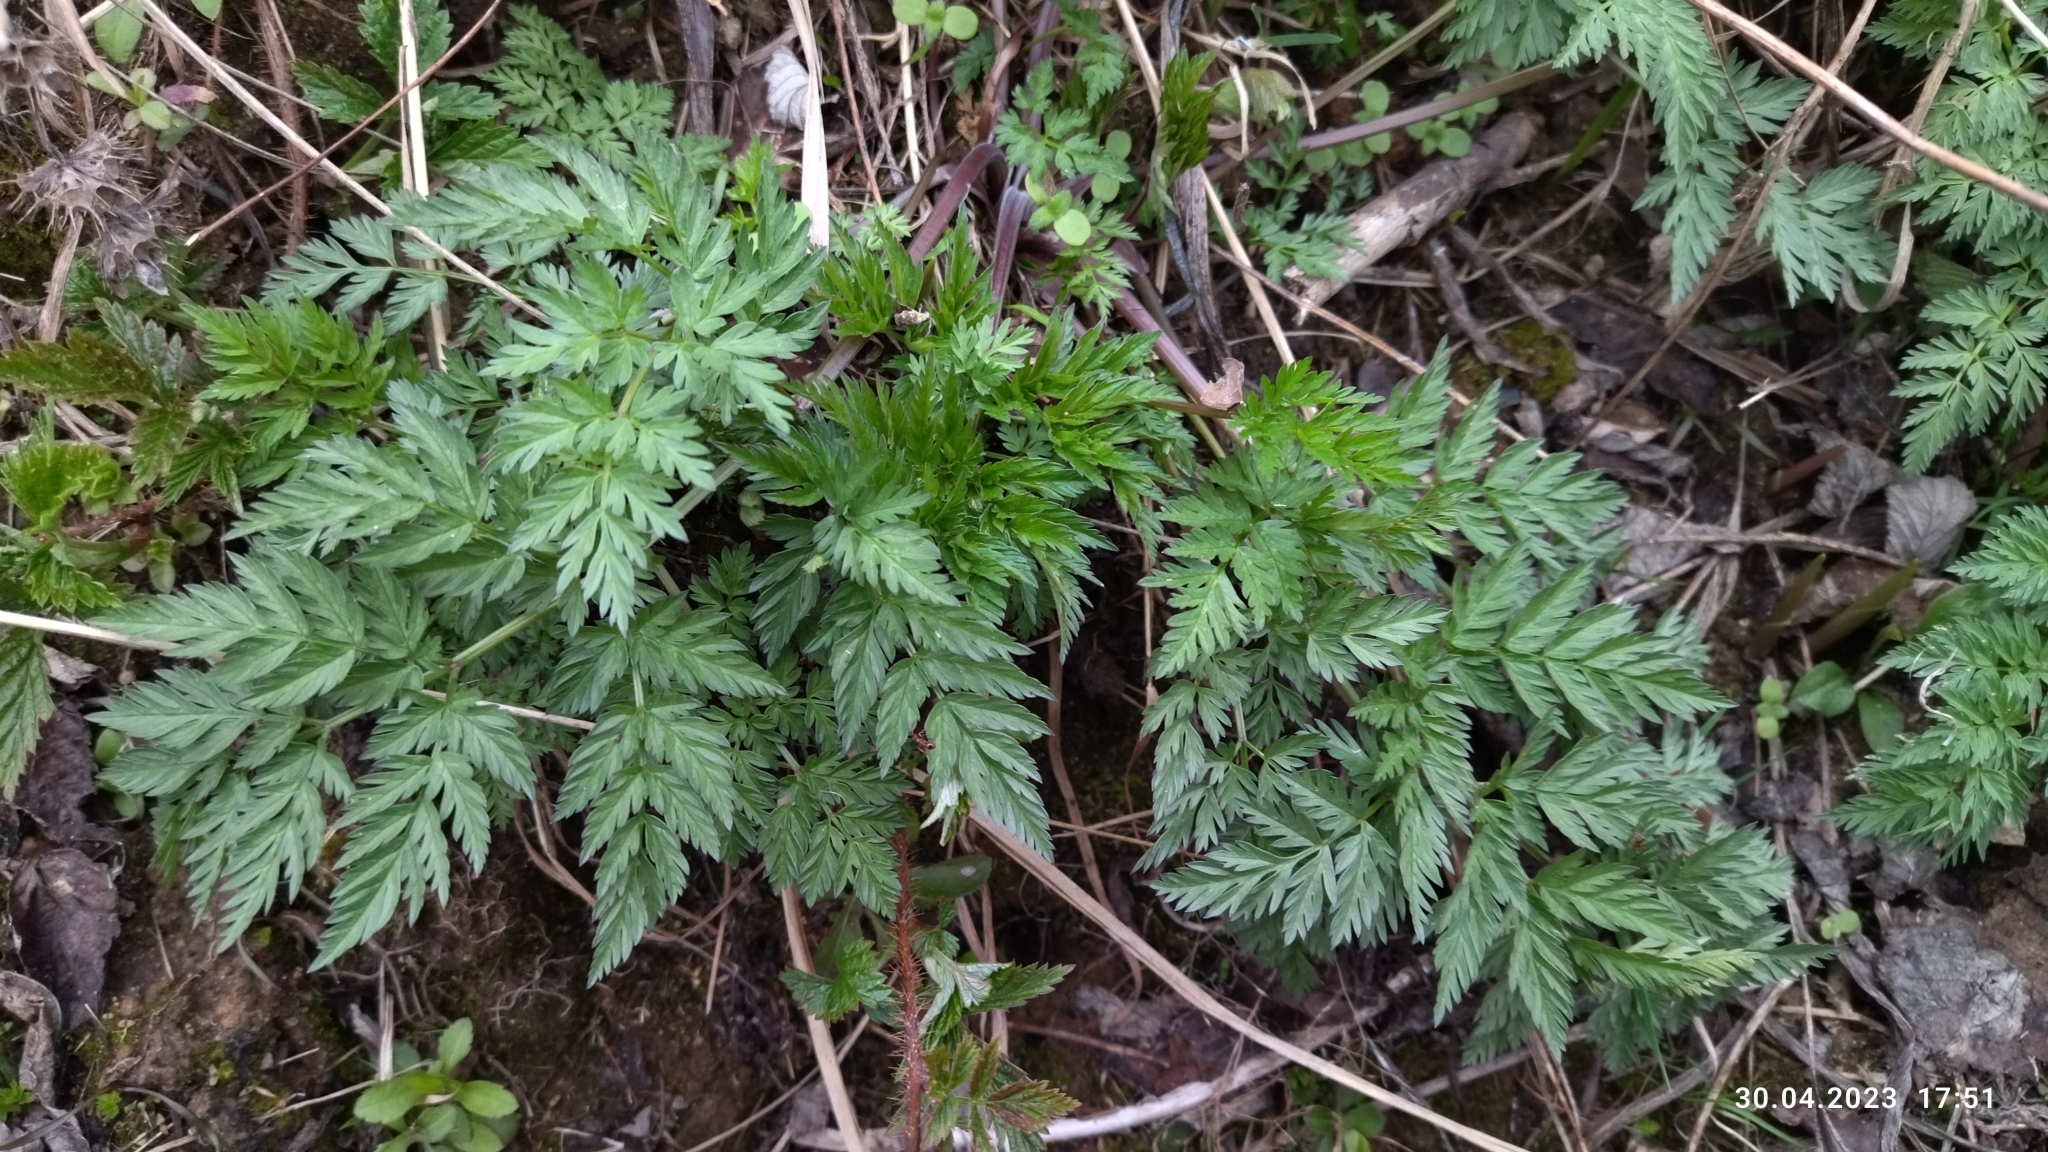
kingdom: Plantae
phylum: Tracheophyta
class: Magnoliopsida
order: Apiales
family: Apiaceae
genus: Anthriscus
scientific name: Anthriscus sylvestris
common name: Cow parsley
